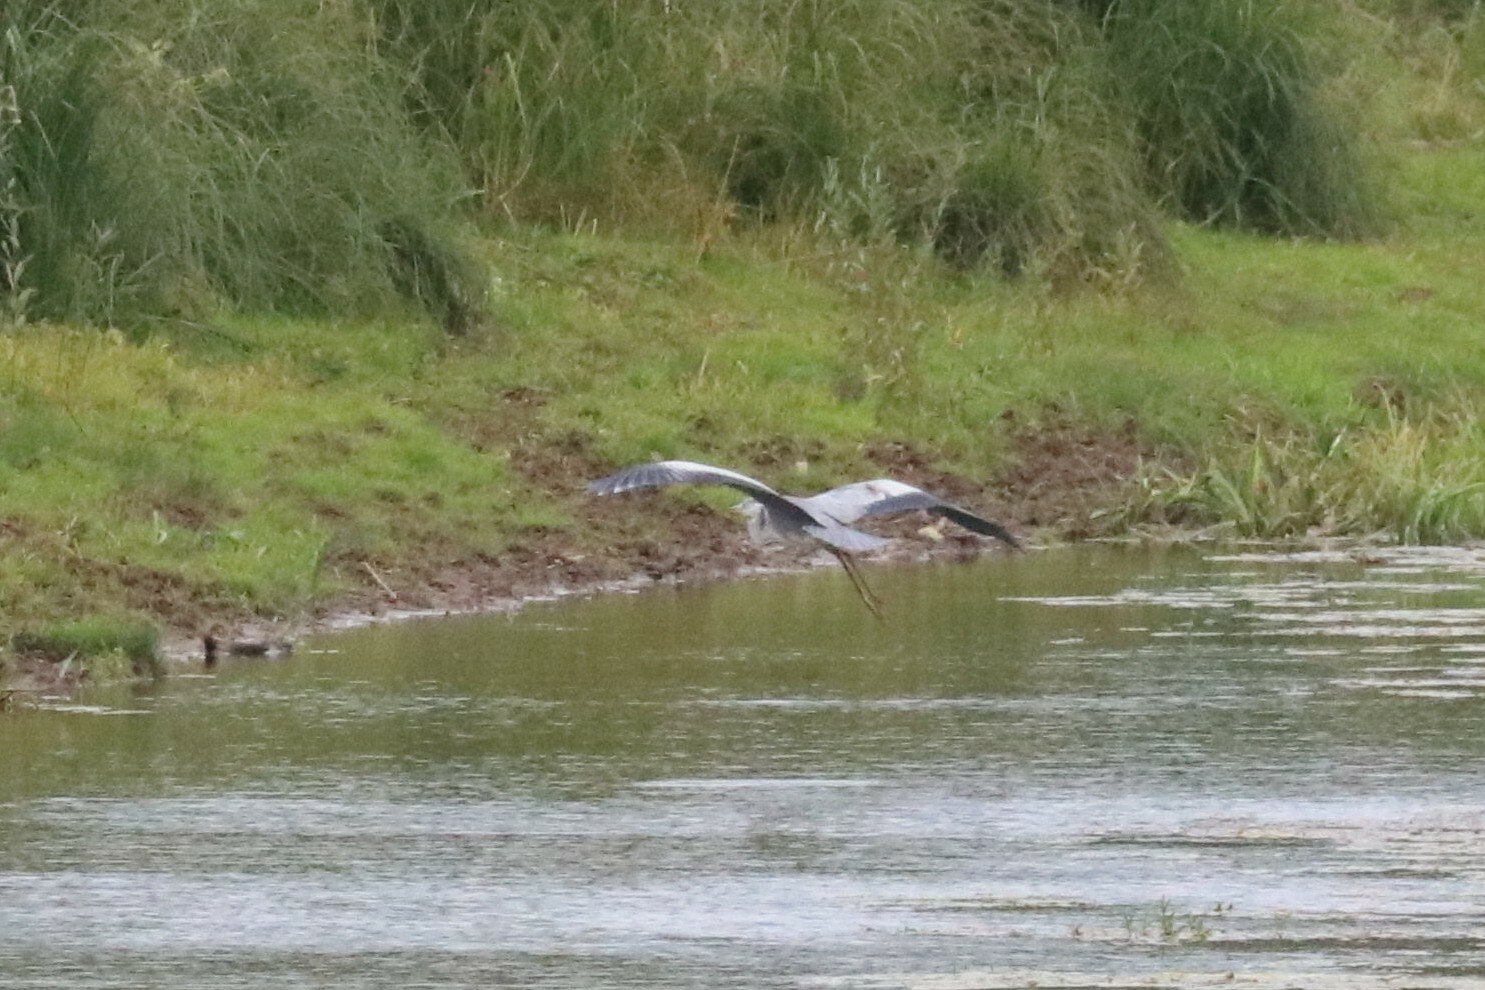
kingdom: Animalia
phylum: Chordata
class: Aves
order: Pelecaniformes
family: Ardeidae
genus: Ardea
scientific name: Ardea cinerea
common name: Grey heron
